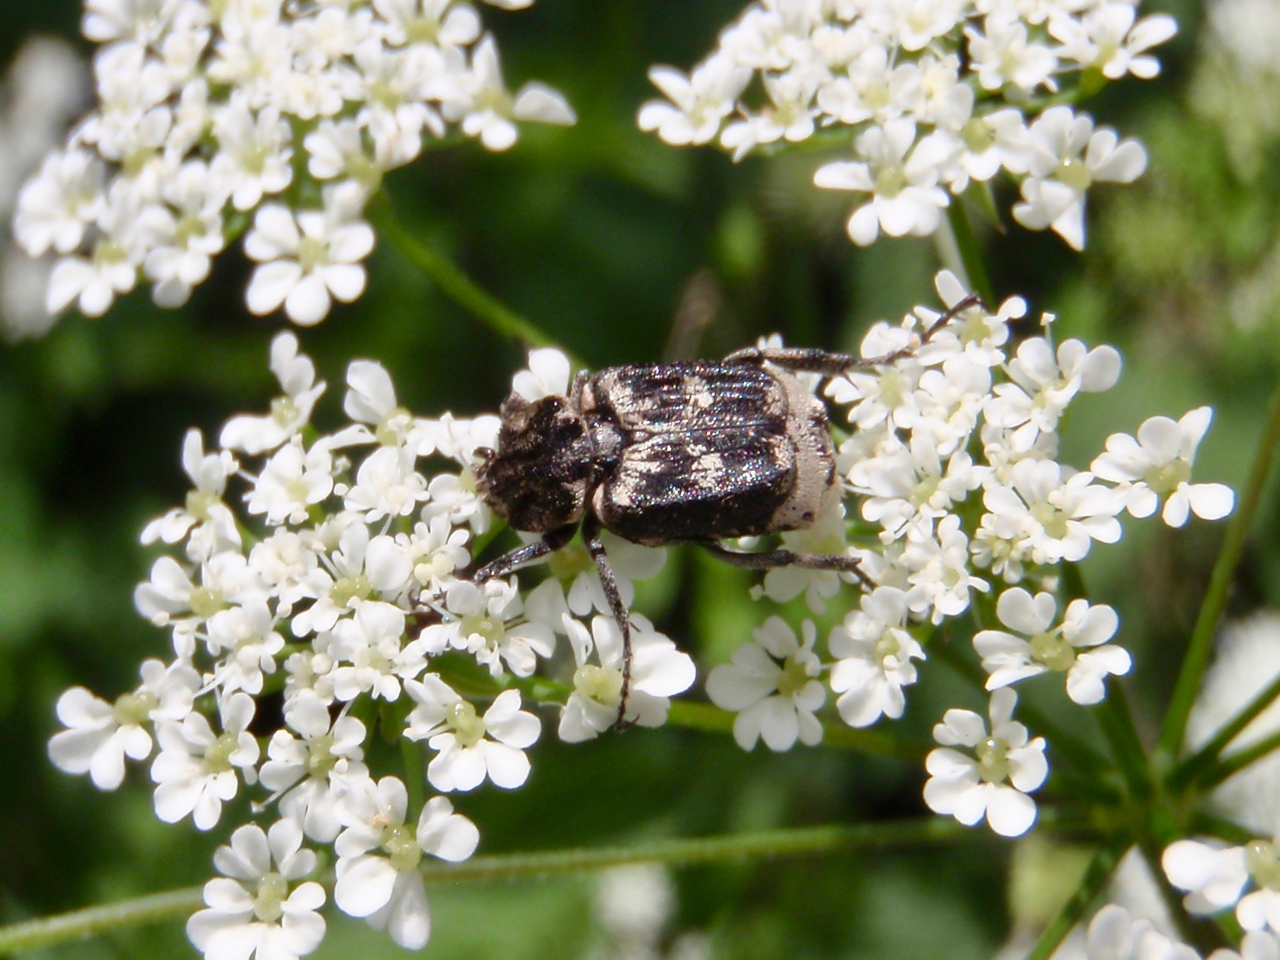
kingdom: Animalia
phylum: Arthropoda
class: Insecta
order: Coleoptera
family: Scarabaeidae
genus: Valgus
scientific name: Valgus hemipterus
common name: Bug flower chafer
